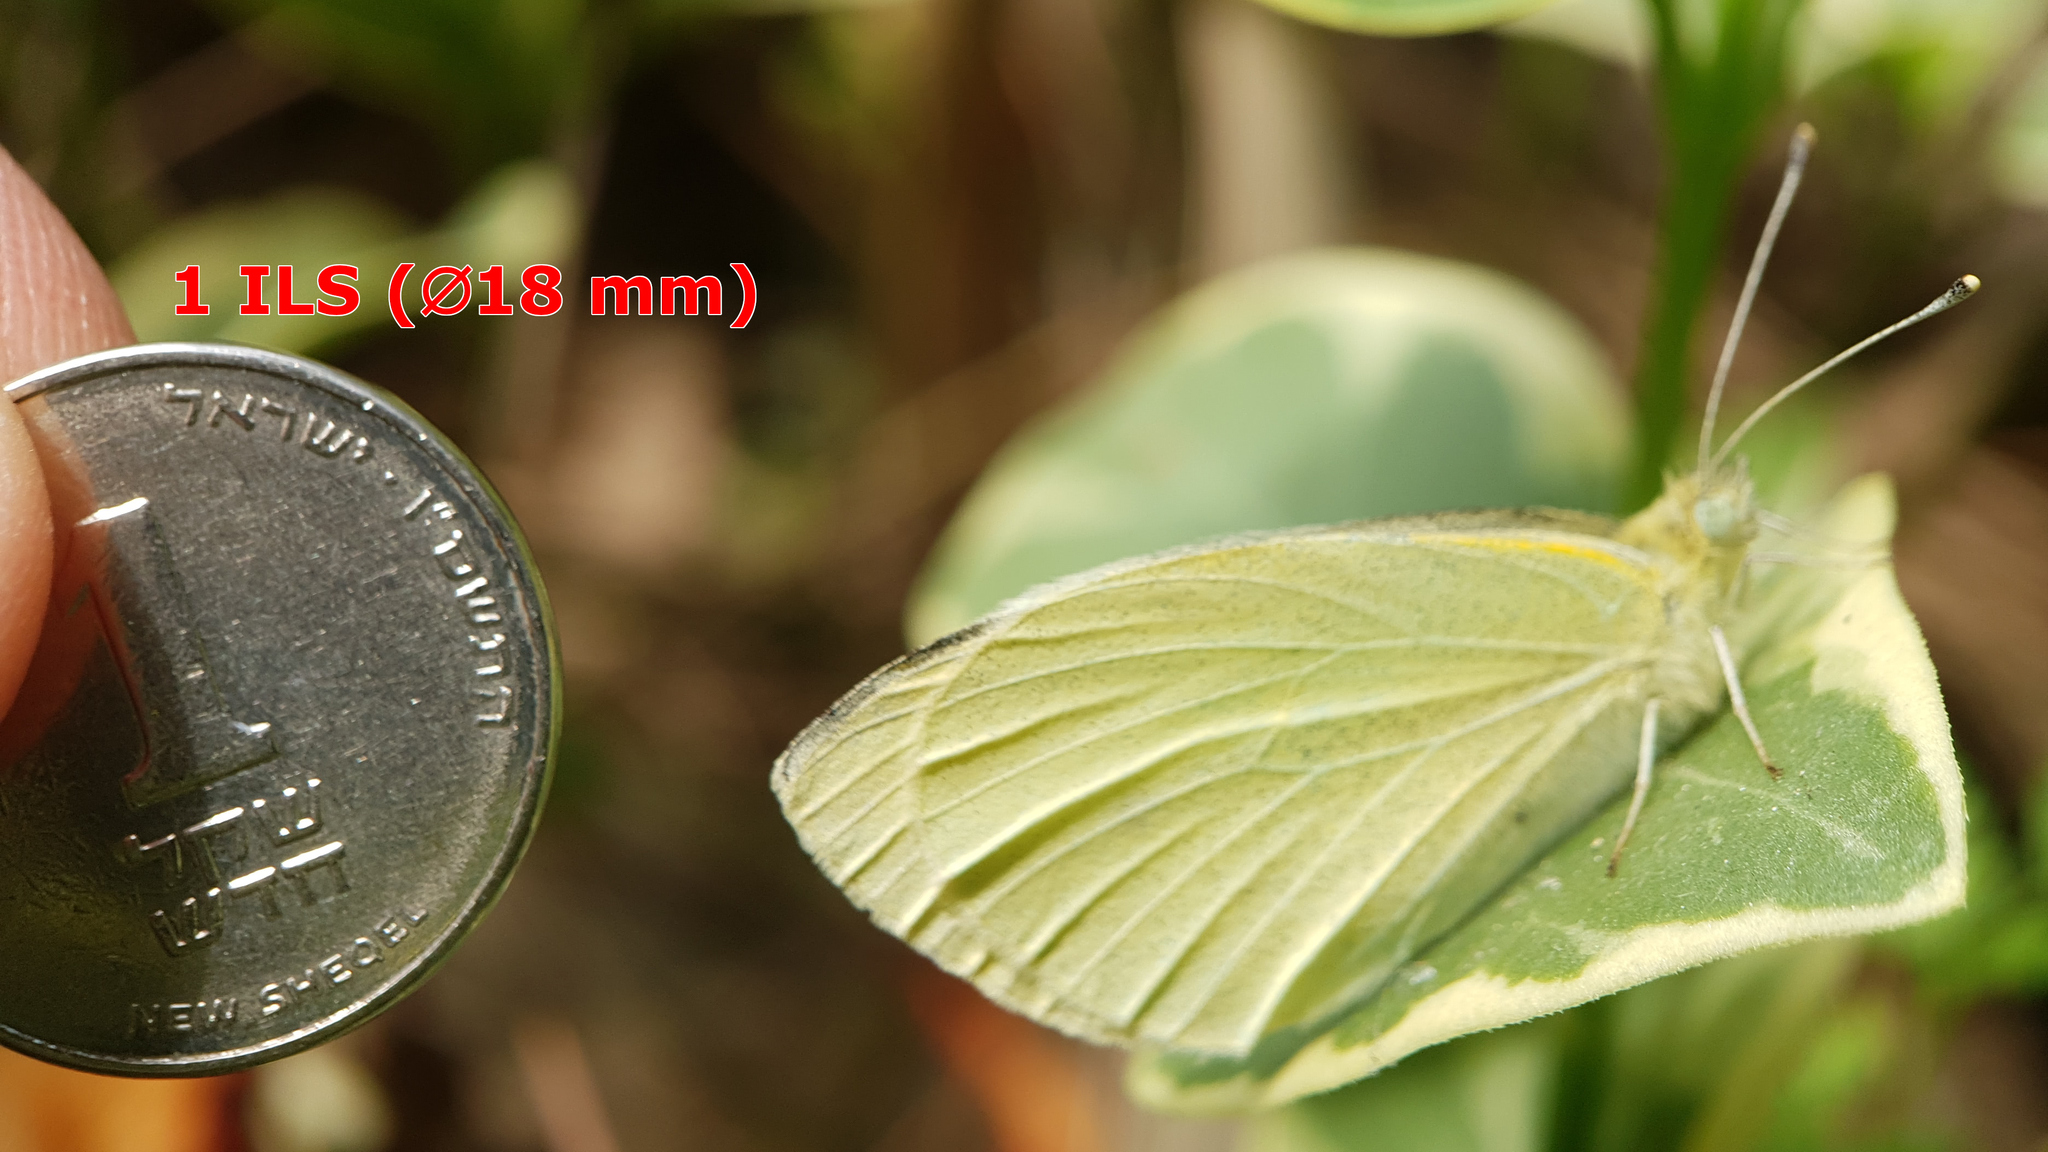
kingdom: Animalia
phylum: Arthropoda
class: Insecta
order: Lepidoptera
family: Pieridae
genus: Pieris
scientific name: Pieris rapae
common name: Small white
